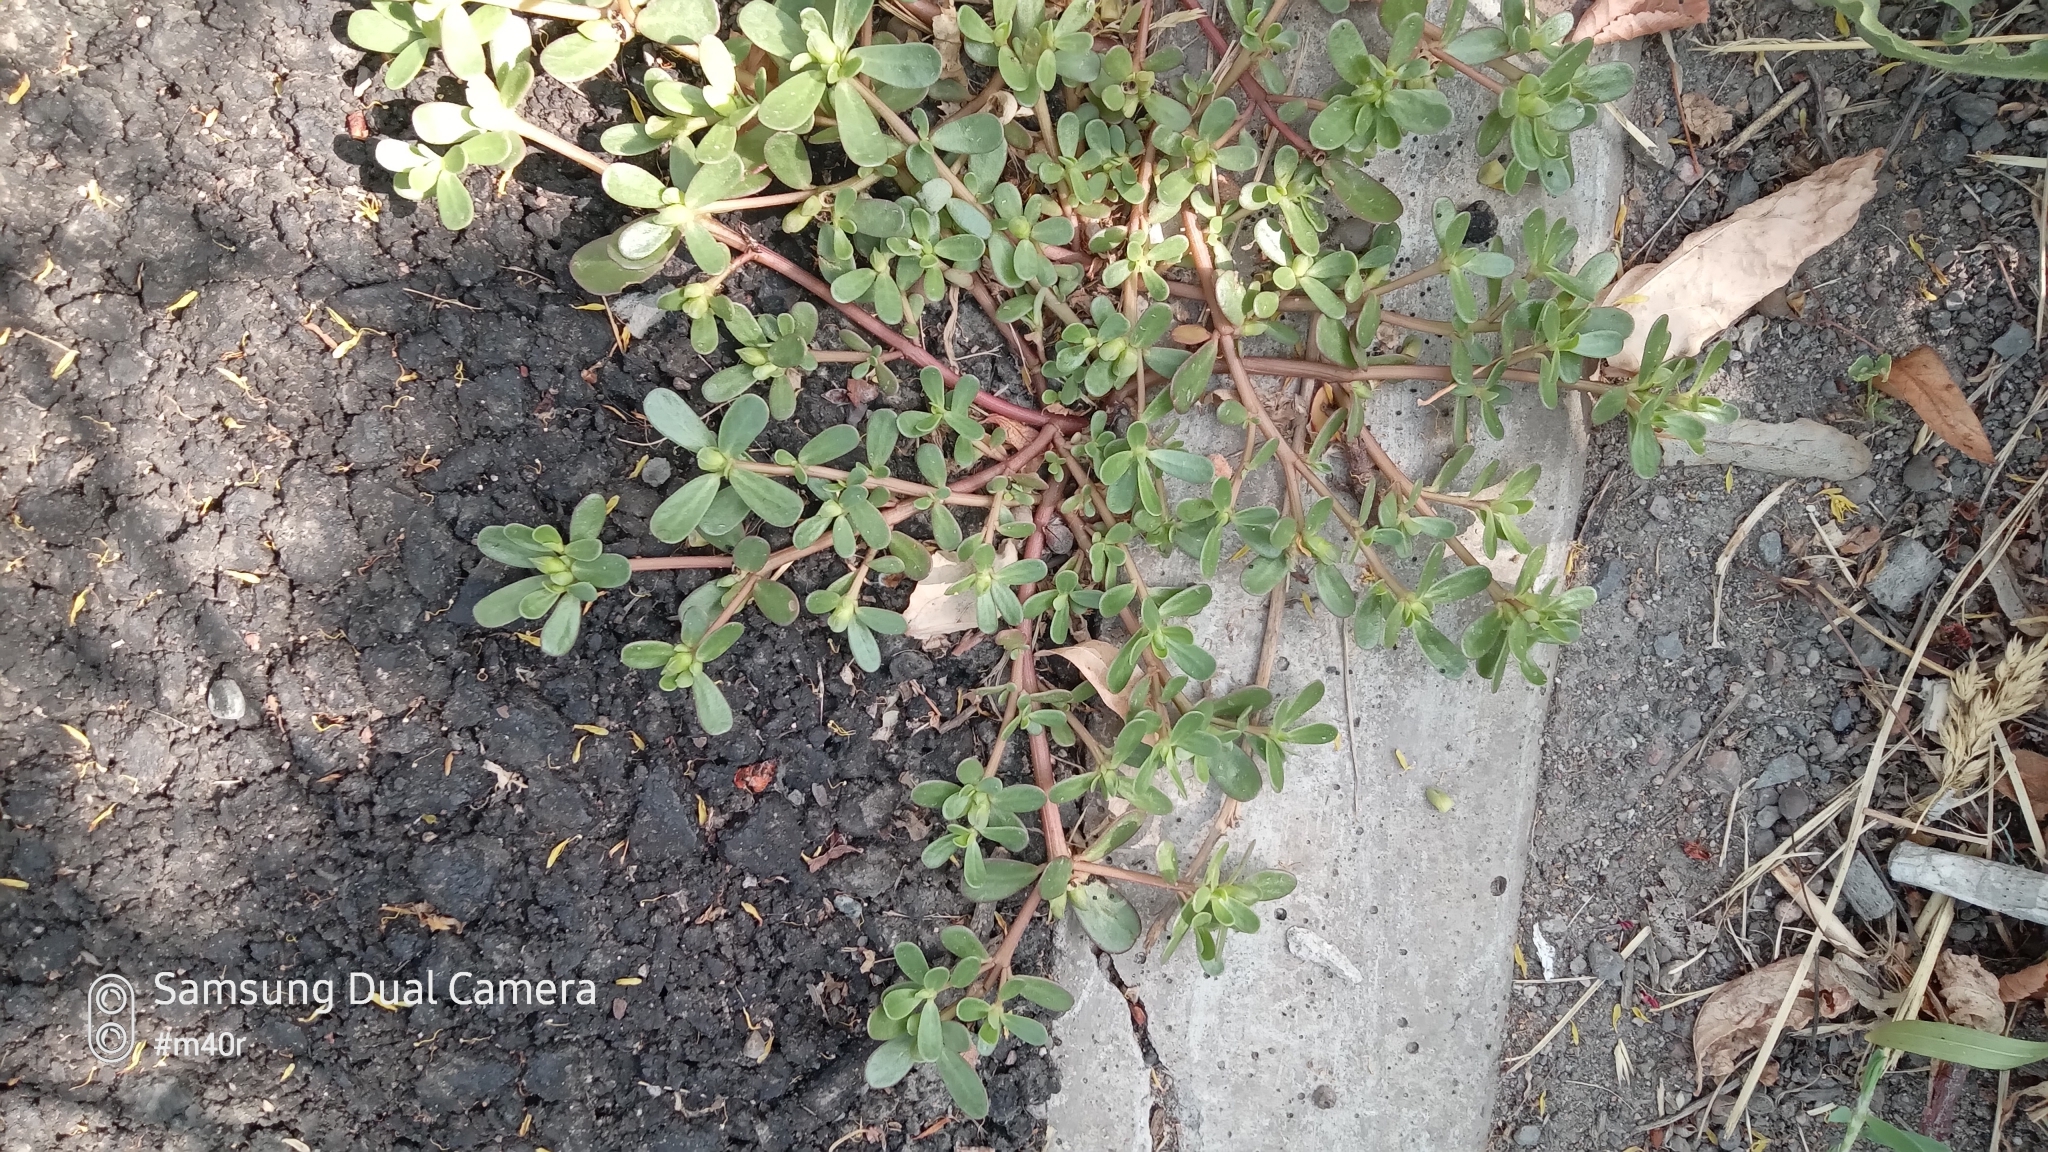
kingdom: Plantae
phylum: Tracheophyta
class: Magnoliopsida
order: Caryophyllales
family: Portulacaceae
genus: Portulaca
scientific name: Portulaca oleracea
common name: Common purslane
